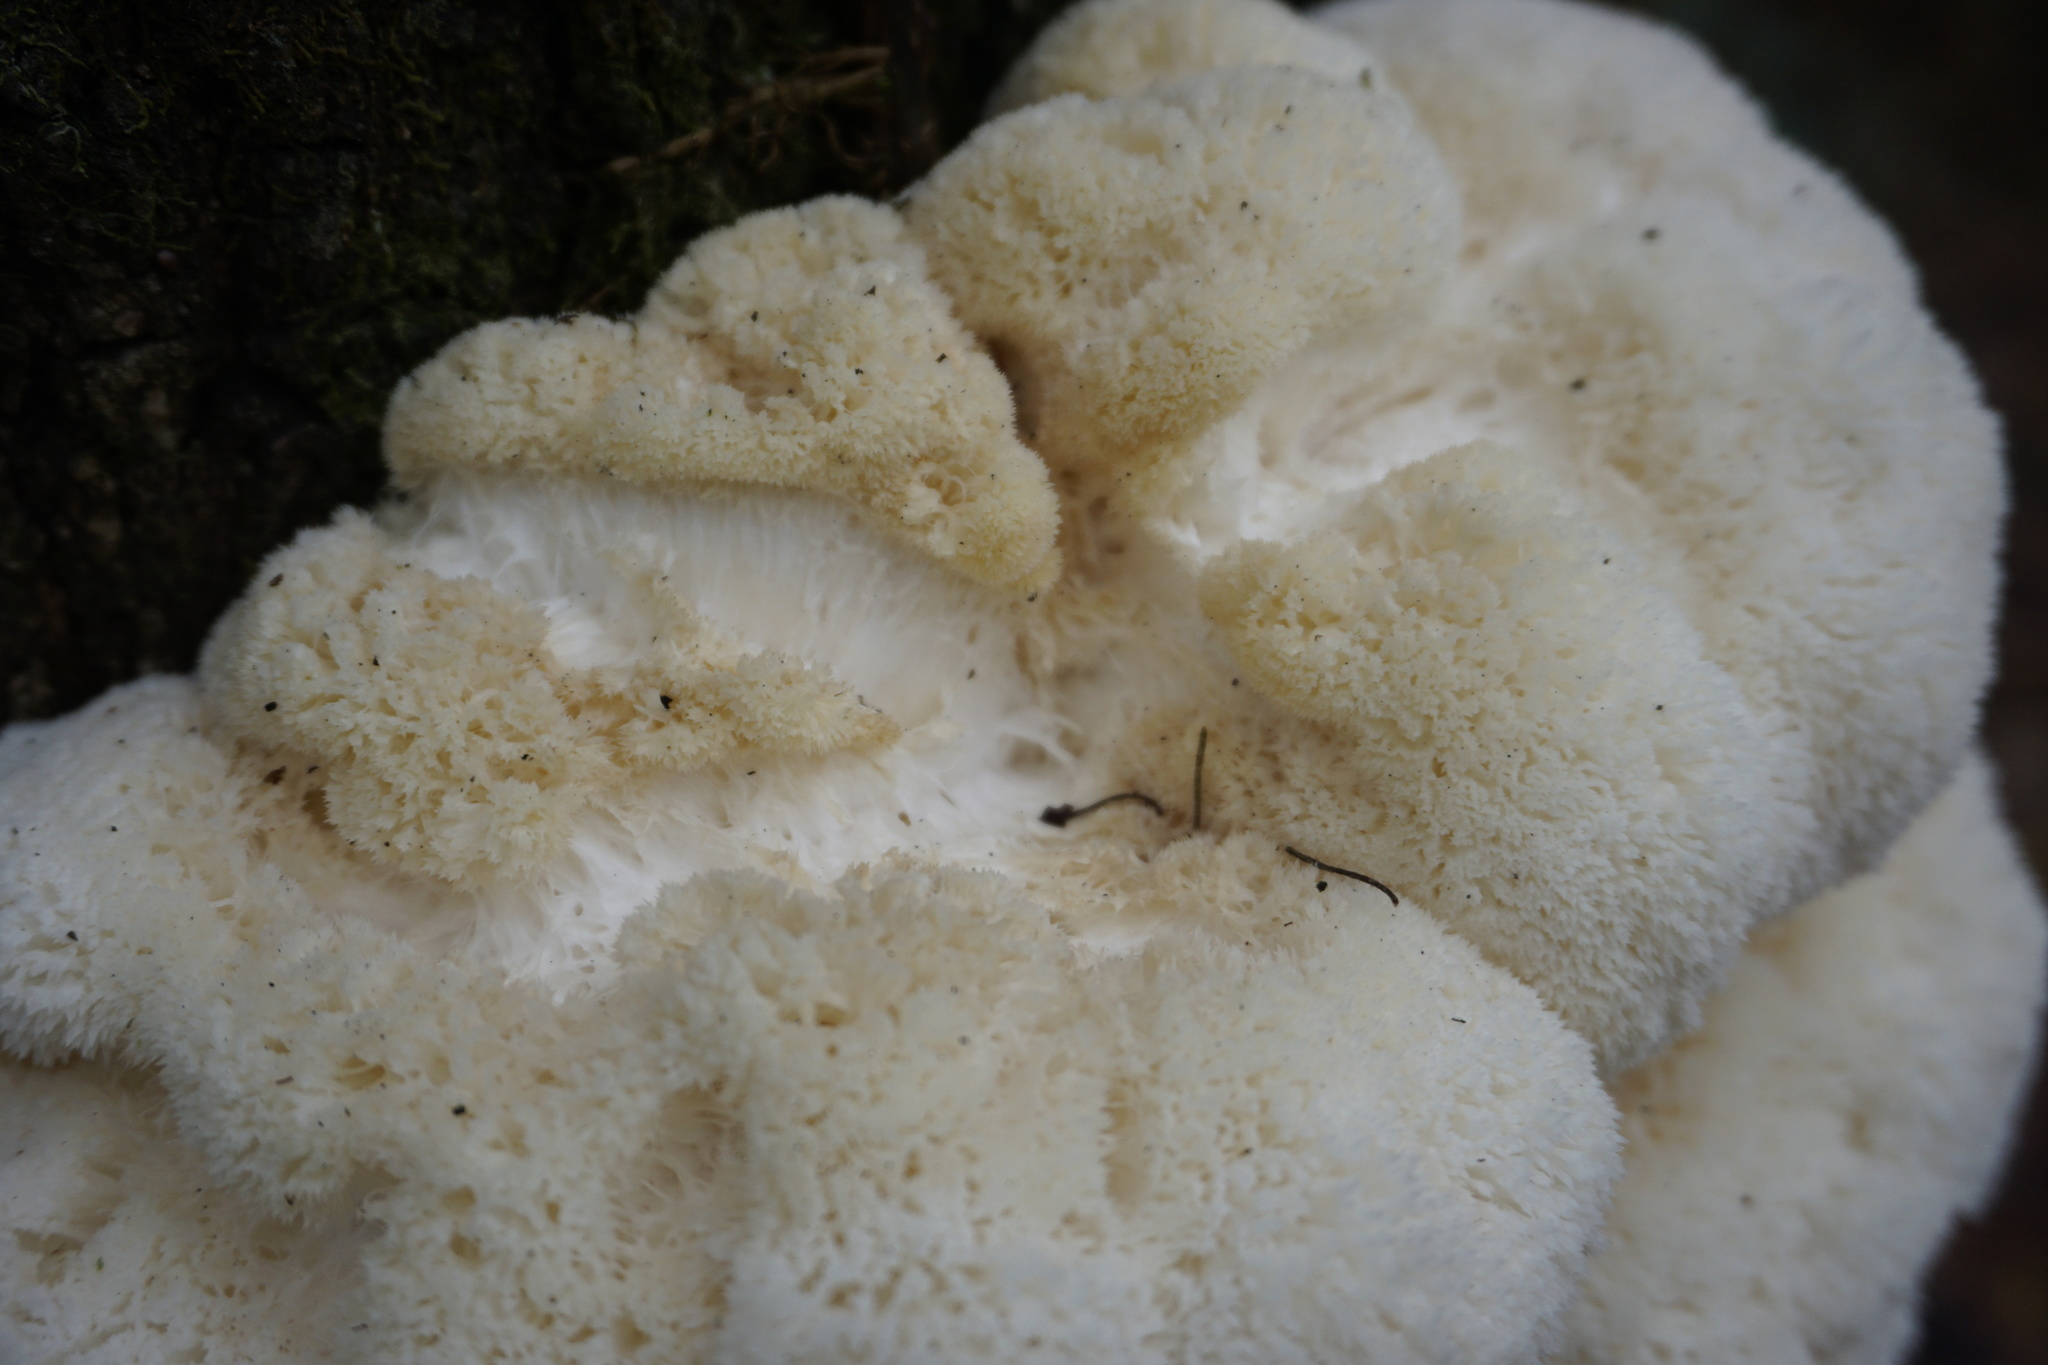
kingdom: Fungi
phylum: Basidiomycota
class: Agaricomycetes
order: Russulales
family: Hericiaceae
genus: Hericium
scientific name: Hericium erinaceus
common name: Bearded tooth
